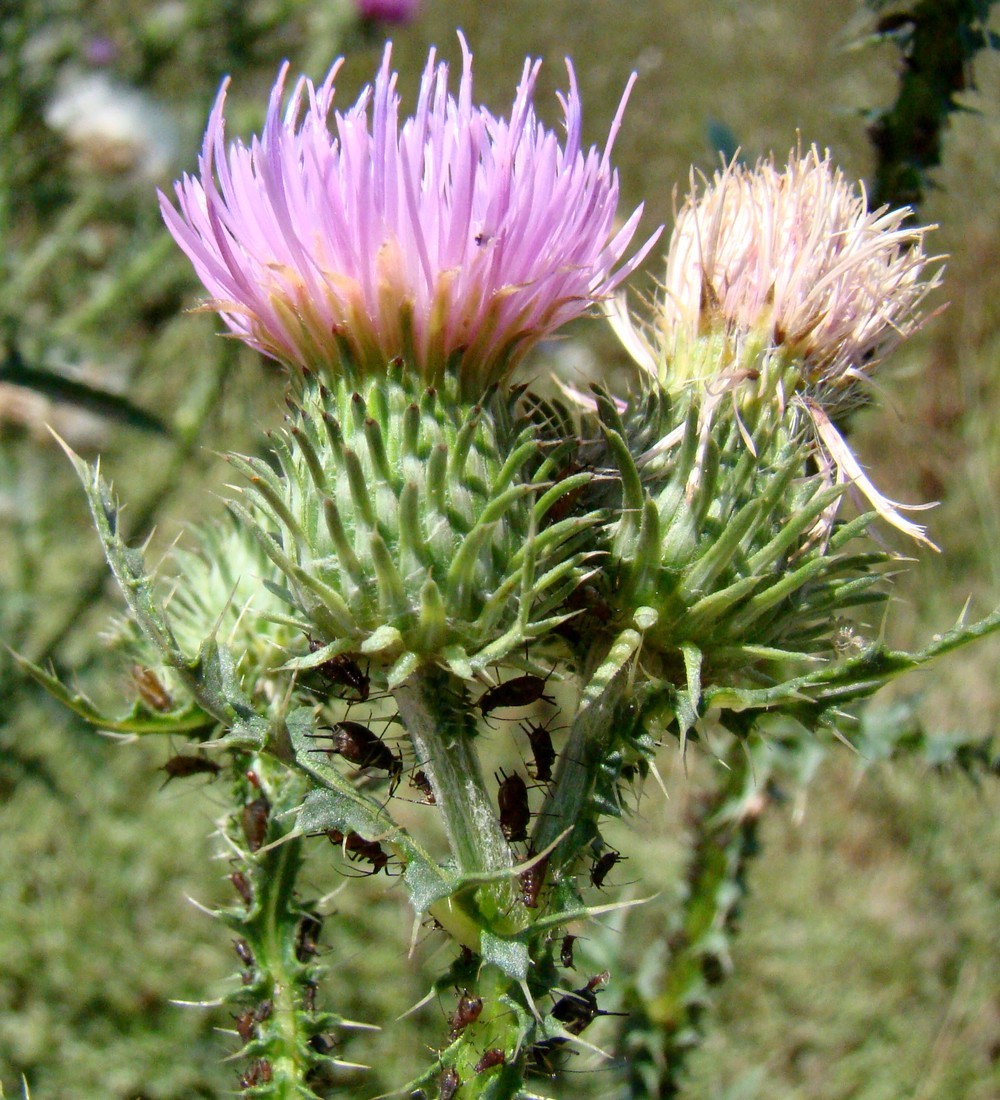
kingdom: Plantae
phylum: Tracheophyta
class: Magnoliopsida
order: Asterales
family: Asteraceae
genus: Carduus
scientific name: Carduus acanthoides
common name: Plumeless thistle
